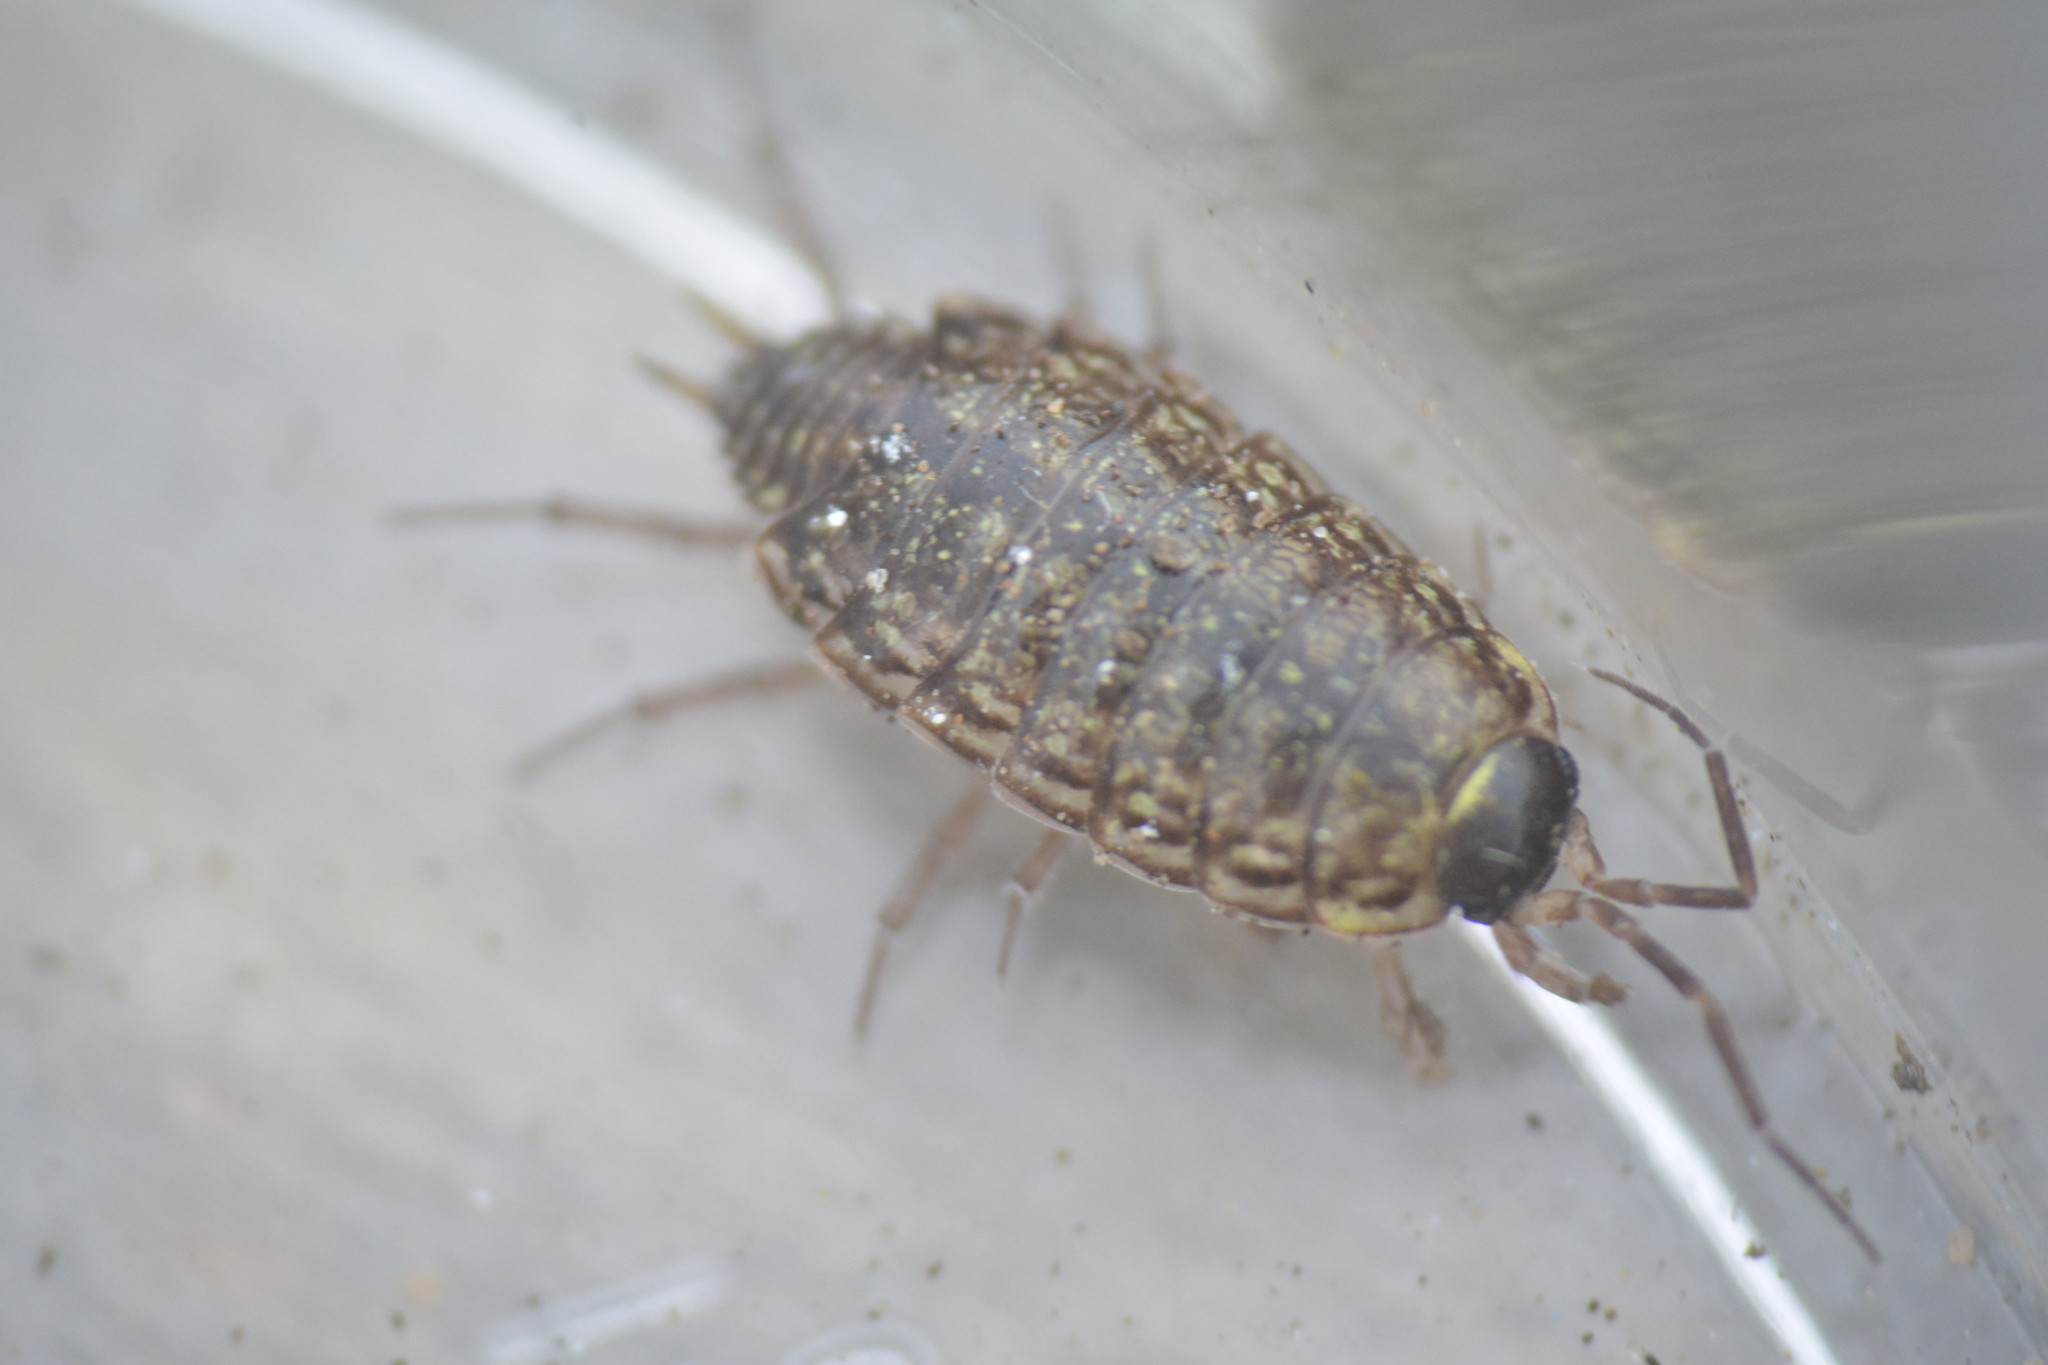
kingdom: Animalia
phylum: Arthropoda
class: Malacostraca
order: Isopoda
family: Philosciidae
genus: Philoscia
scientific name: Philoscia muscorum
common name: Common striped woodlouse
